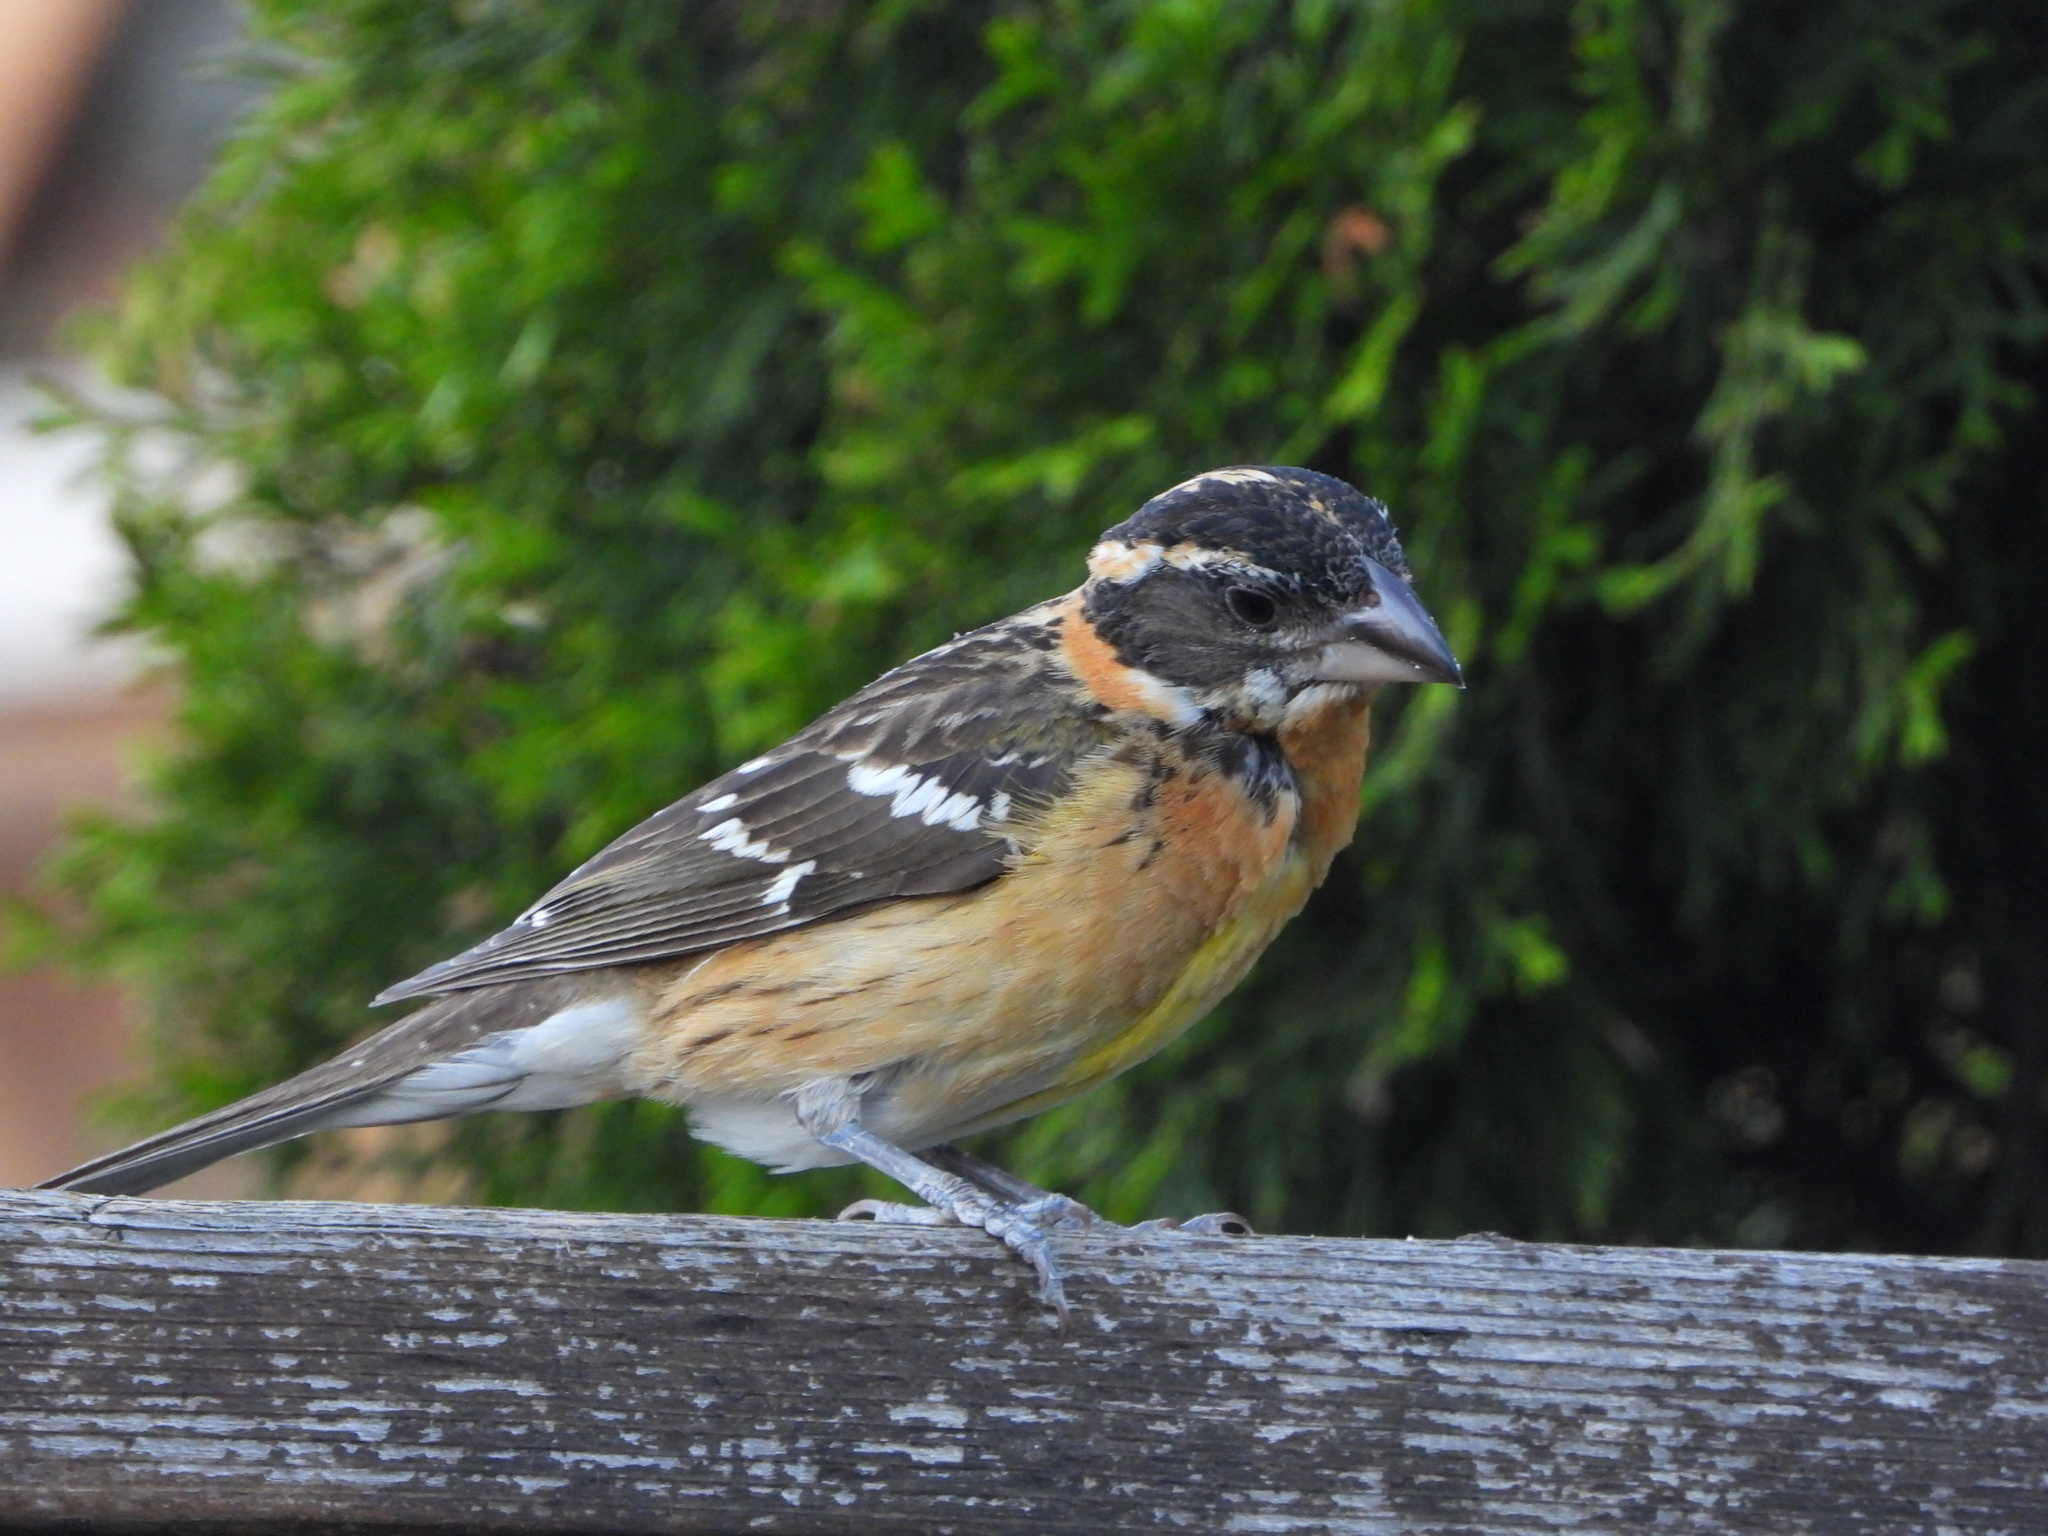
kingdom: Animalia
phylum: Chordata
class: Aves
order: Passeriformes
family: Cardinalidae
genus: Pheucticus
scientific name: Pheucticus melanocephalus
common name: Black-headed grosbeak
